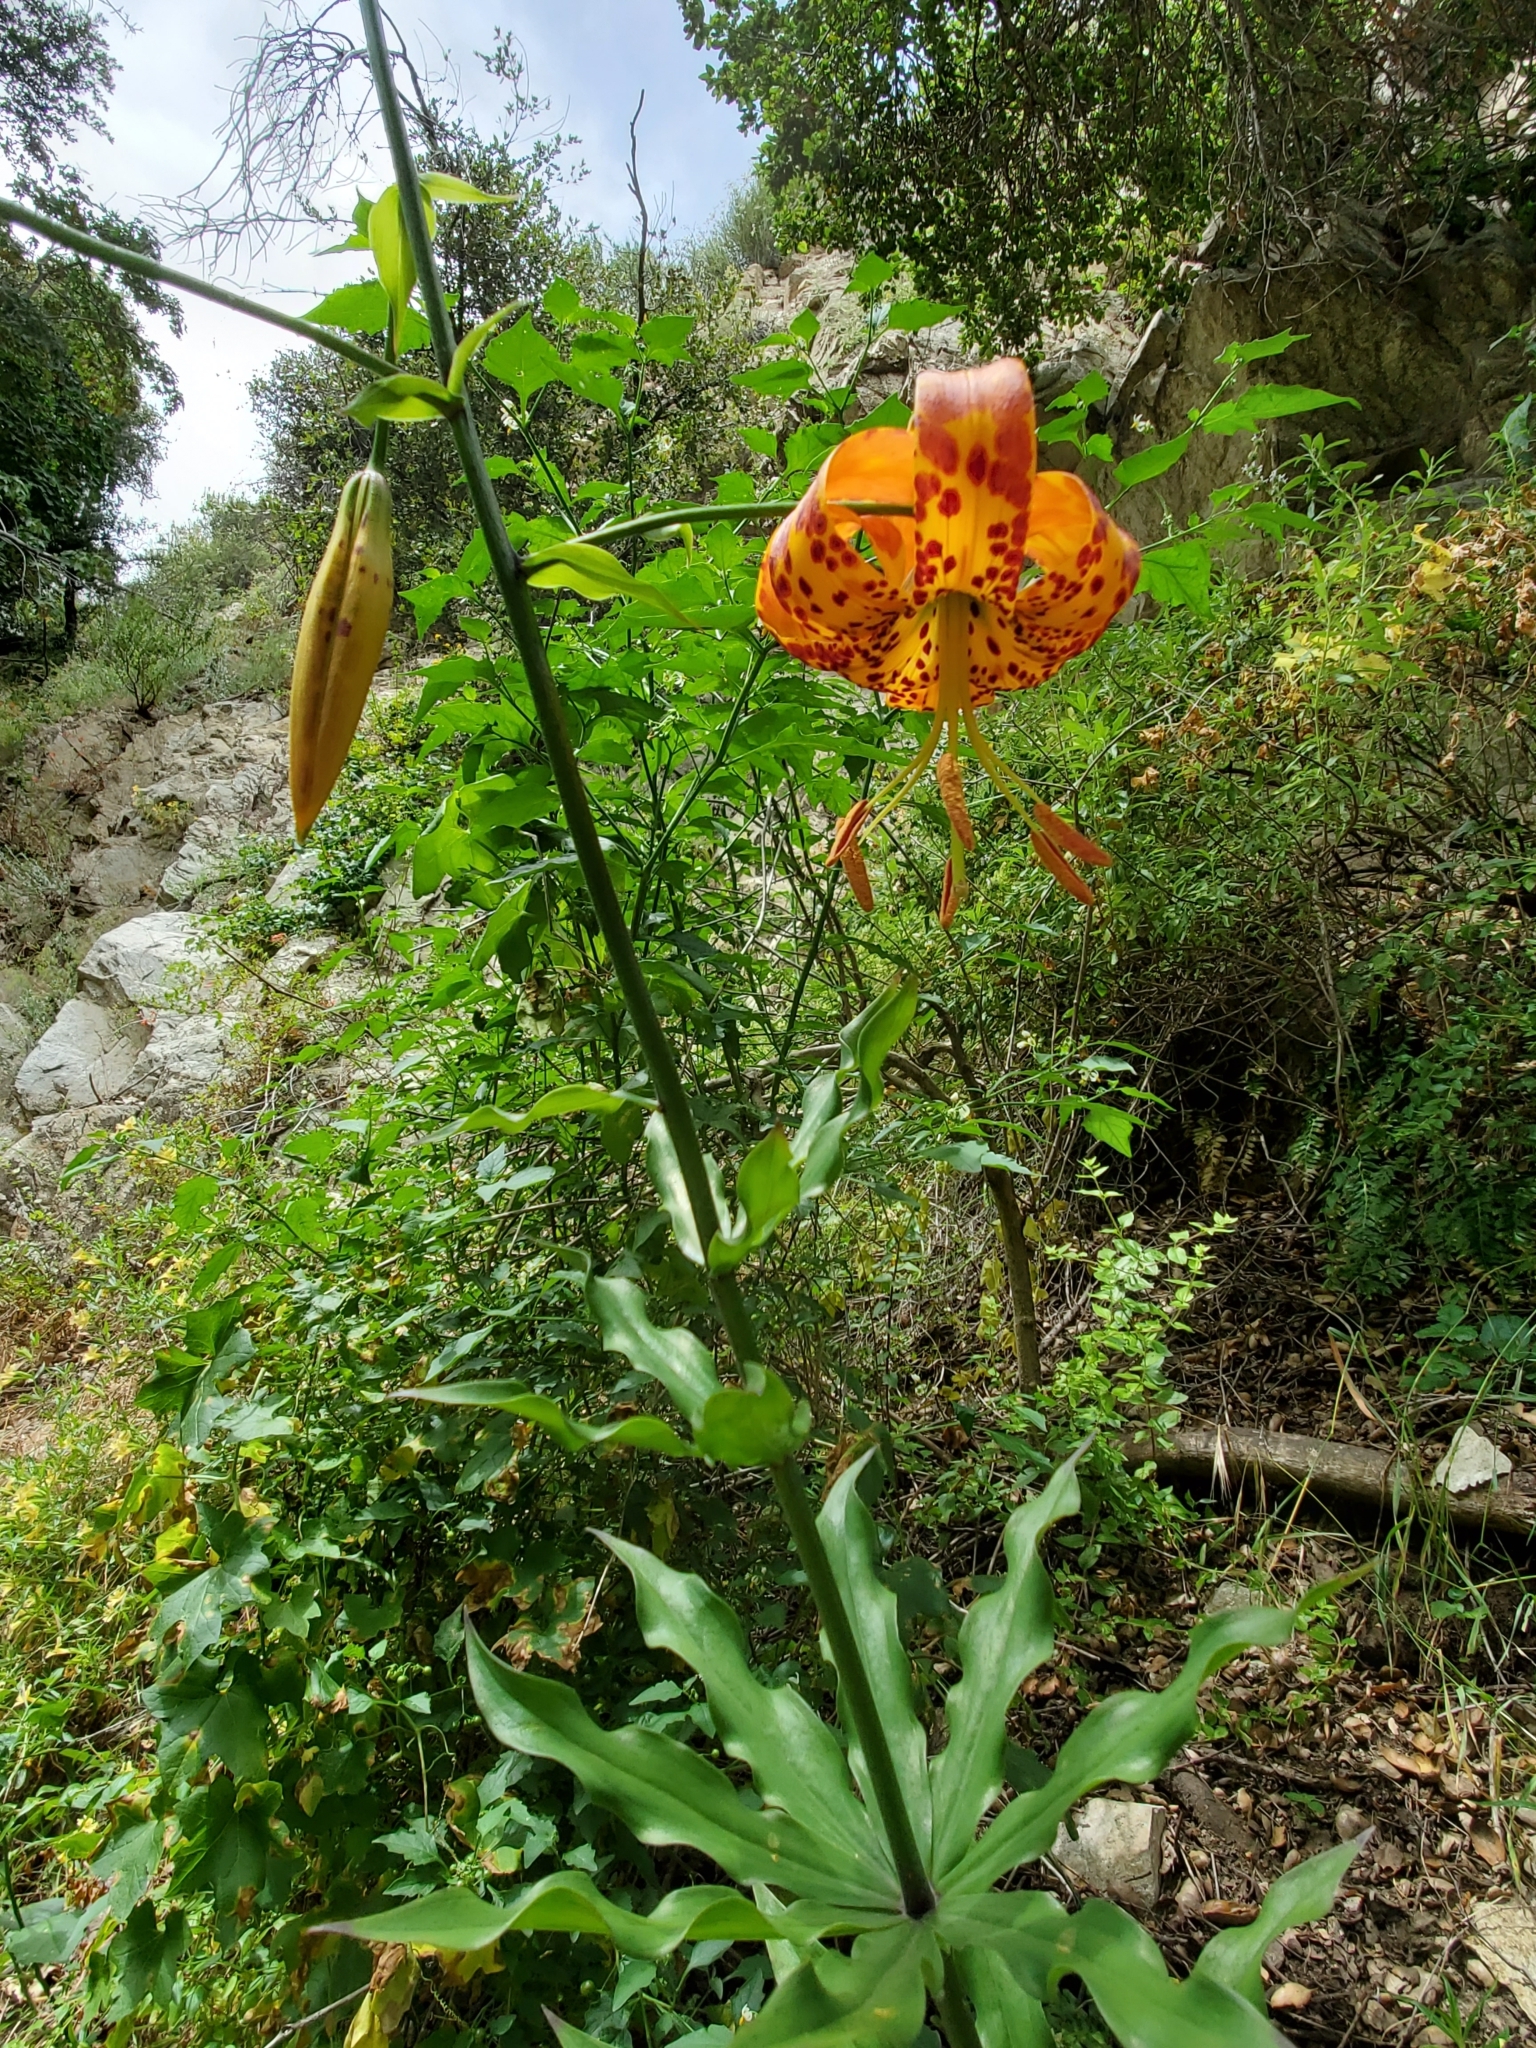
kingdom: Plantae
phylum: Tracheophyta
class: Liliopsida
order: Liliales
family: Liliaceae
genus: Lilium
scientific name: Lilium humboldtii
